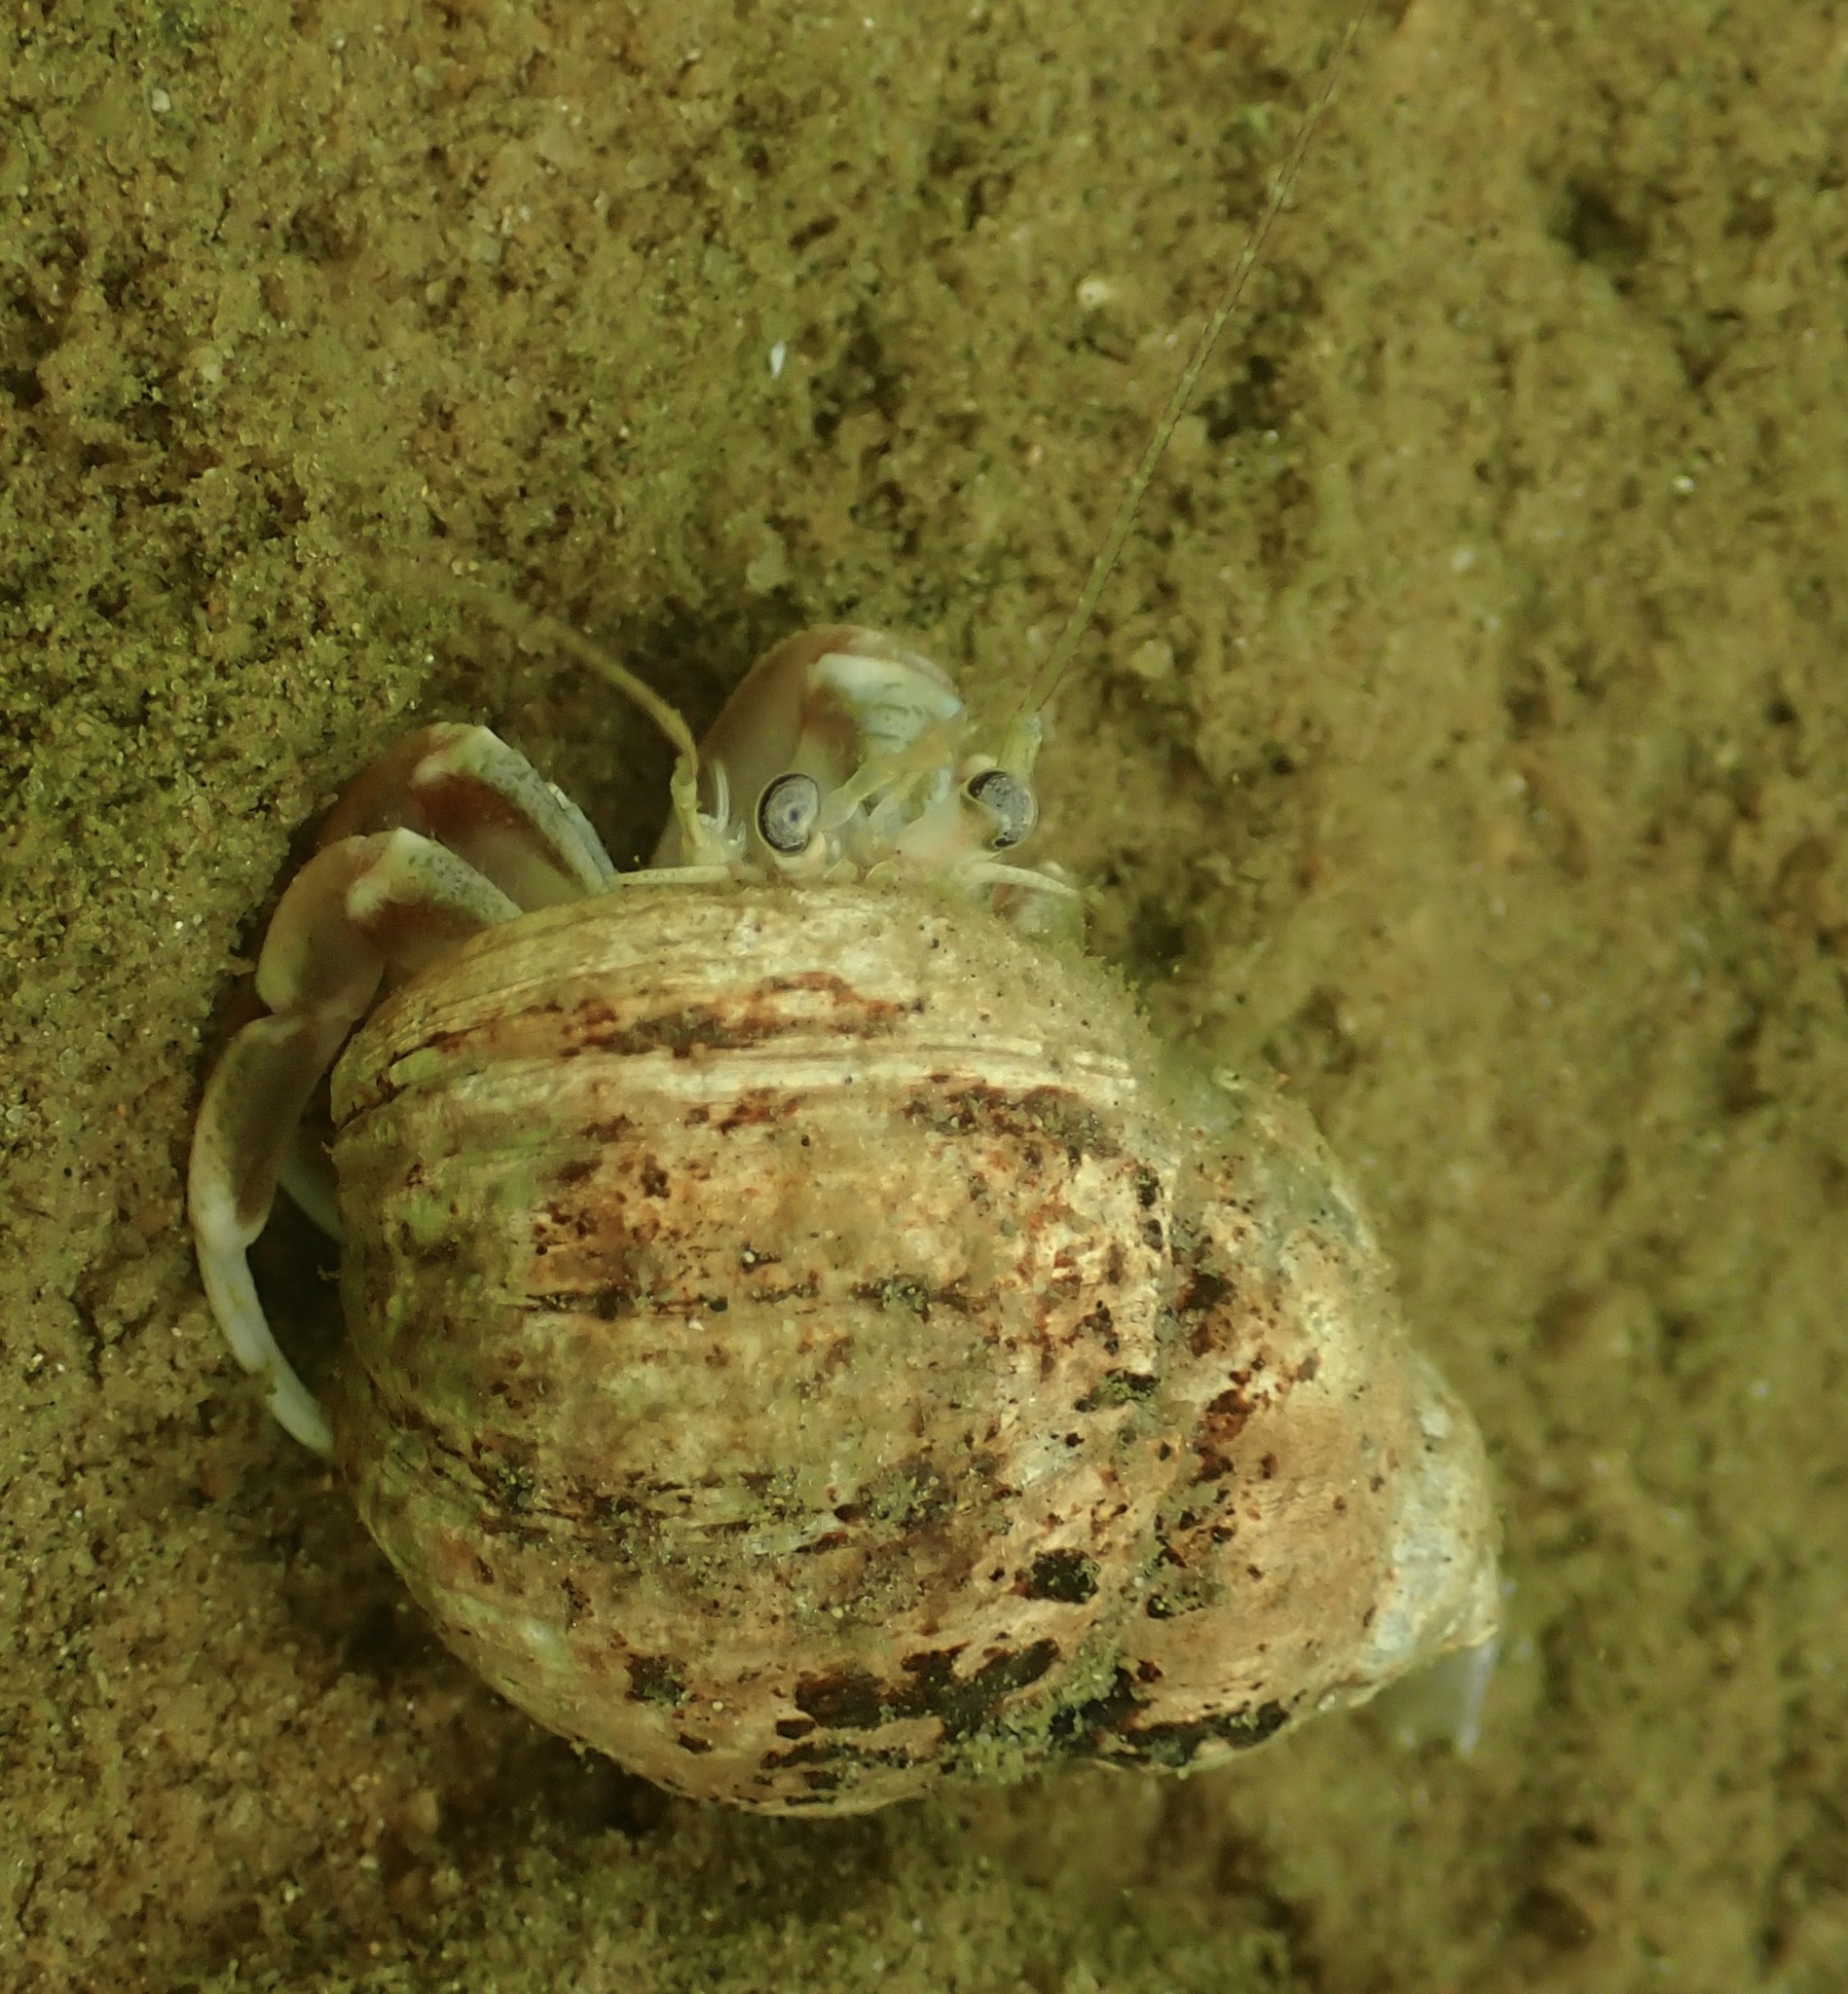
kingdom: Animalia
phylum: Arthropoda
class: Malacostraca
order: Decapoda
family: Paguridae
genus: Pagurus
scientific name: Pagurus longicarpus
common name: Long-armed hermit crab
